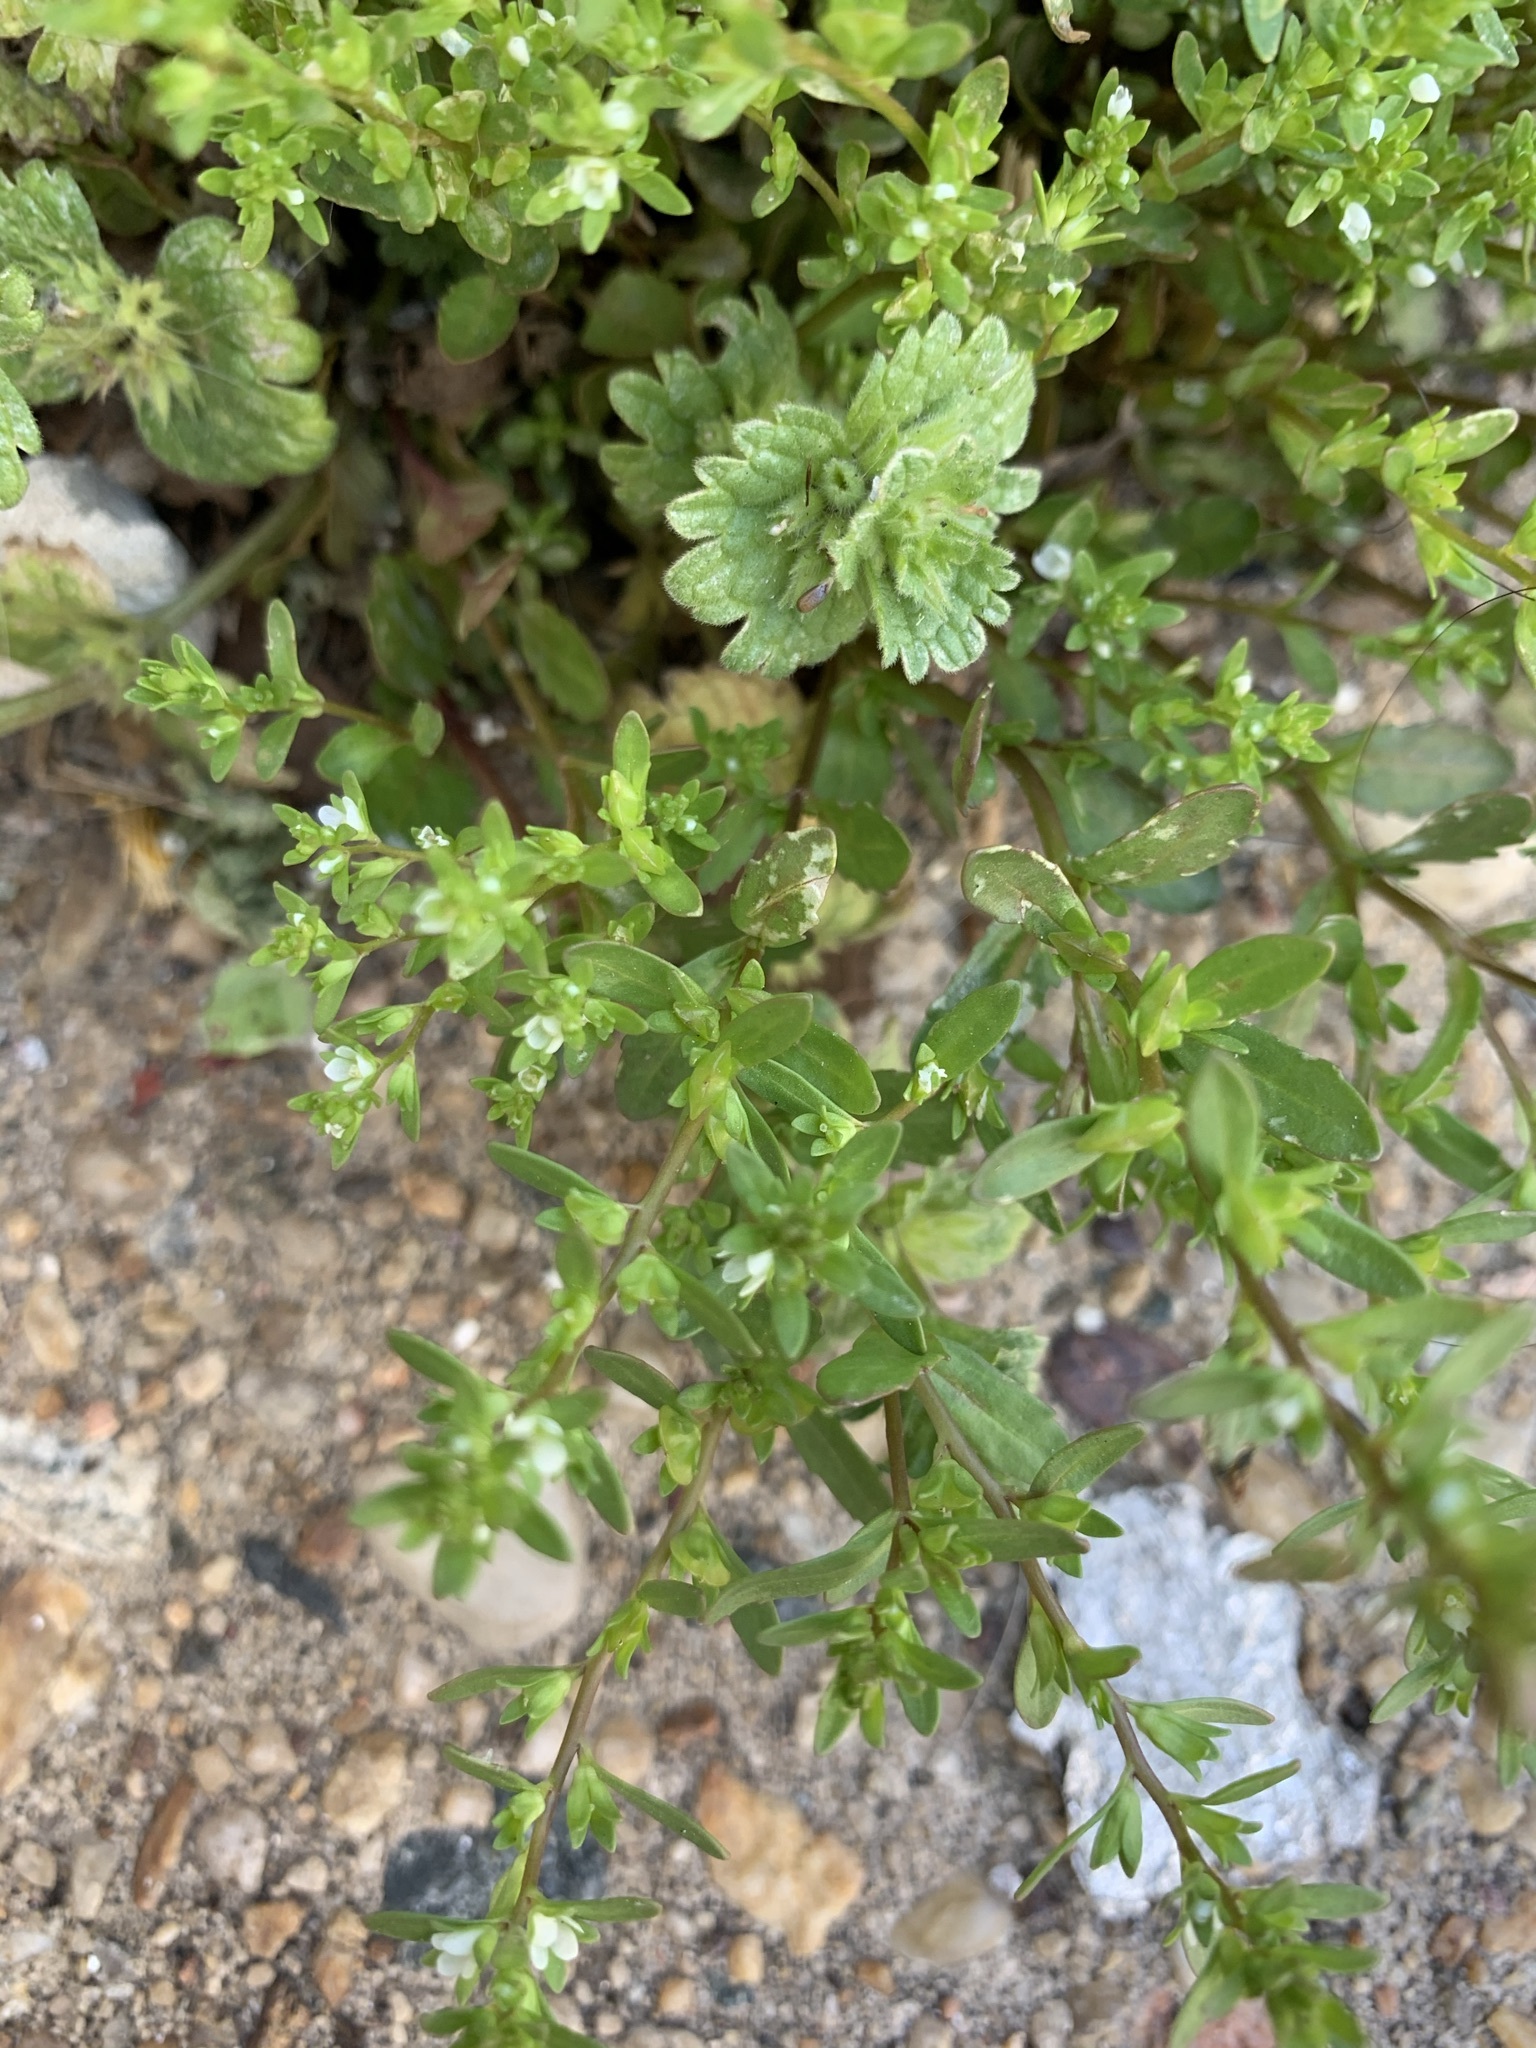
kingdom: Plantae
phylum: Tracheophyta
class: Magnoliopsida
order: Lamiales
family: Lamiaceae
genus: Lamium
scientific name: Lamium amplexicaule
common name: Henbit dead-nettle
